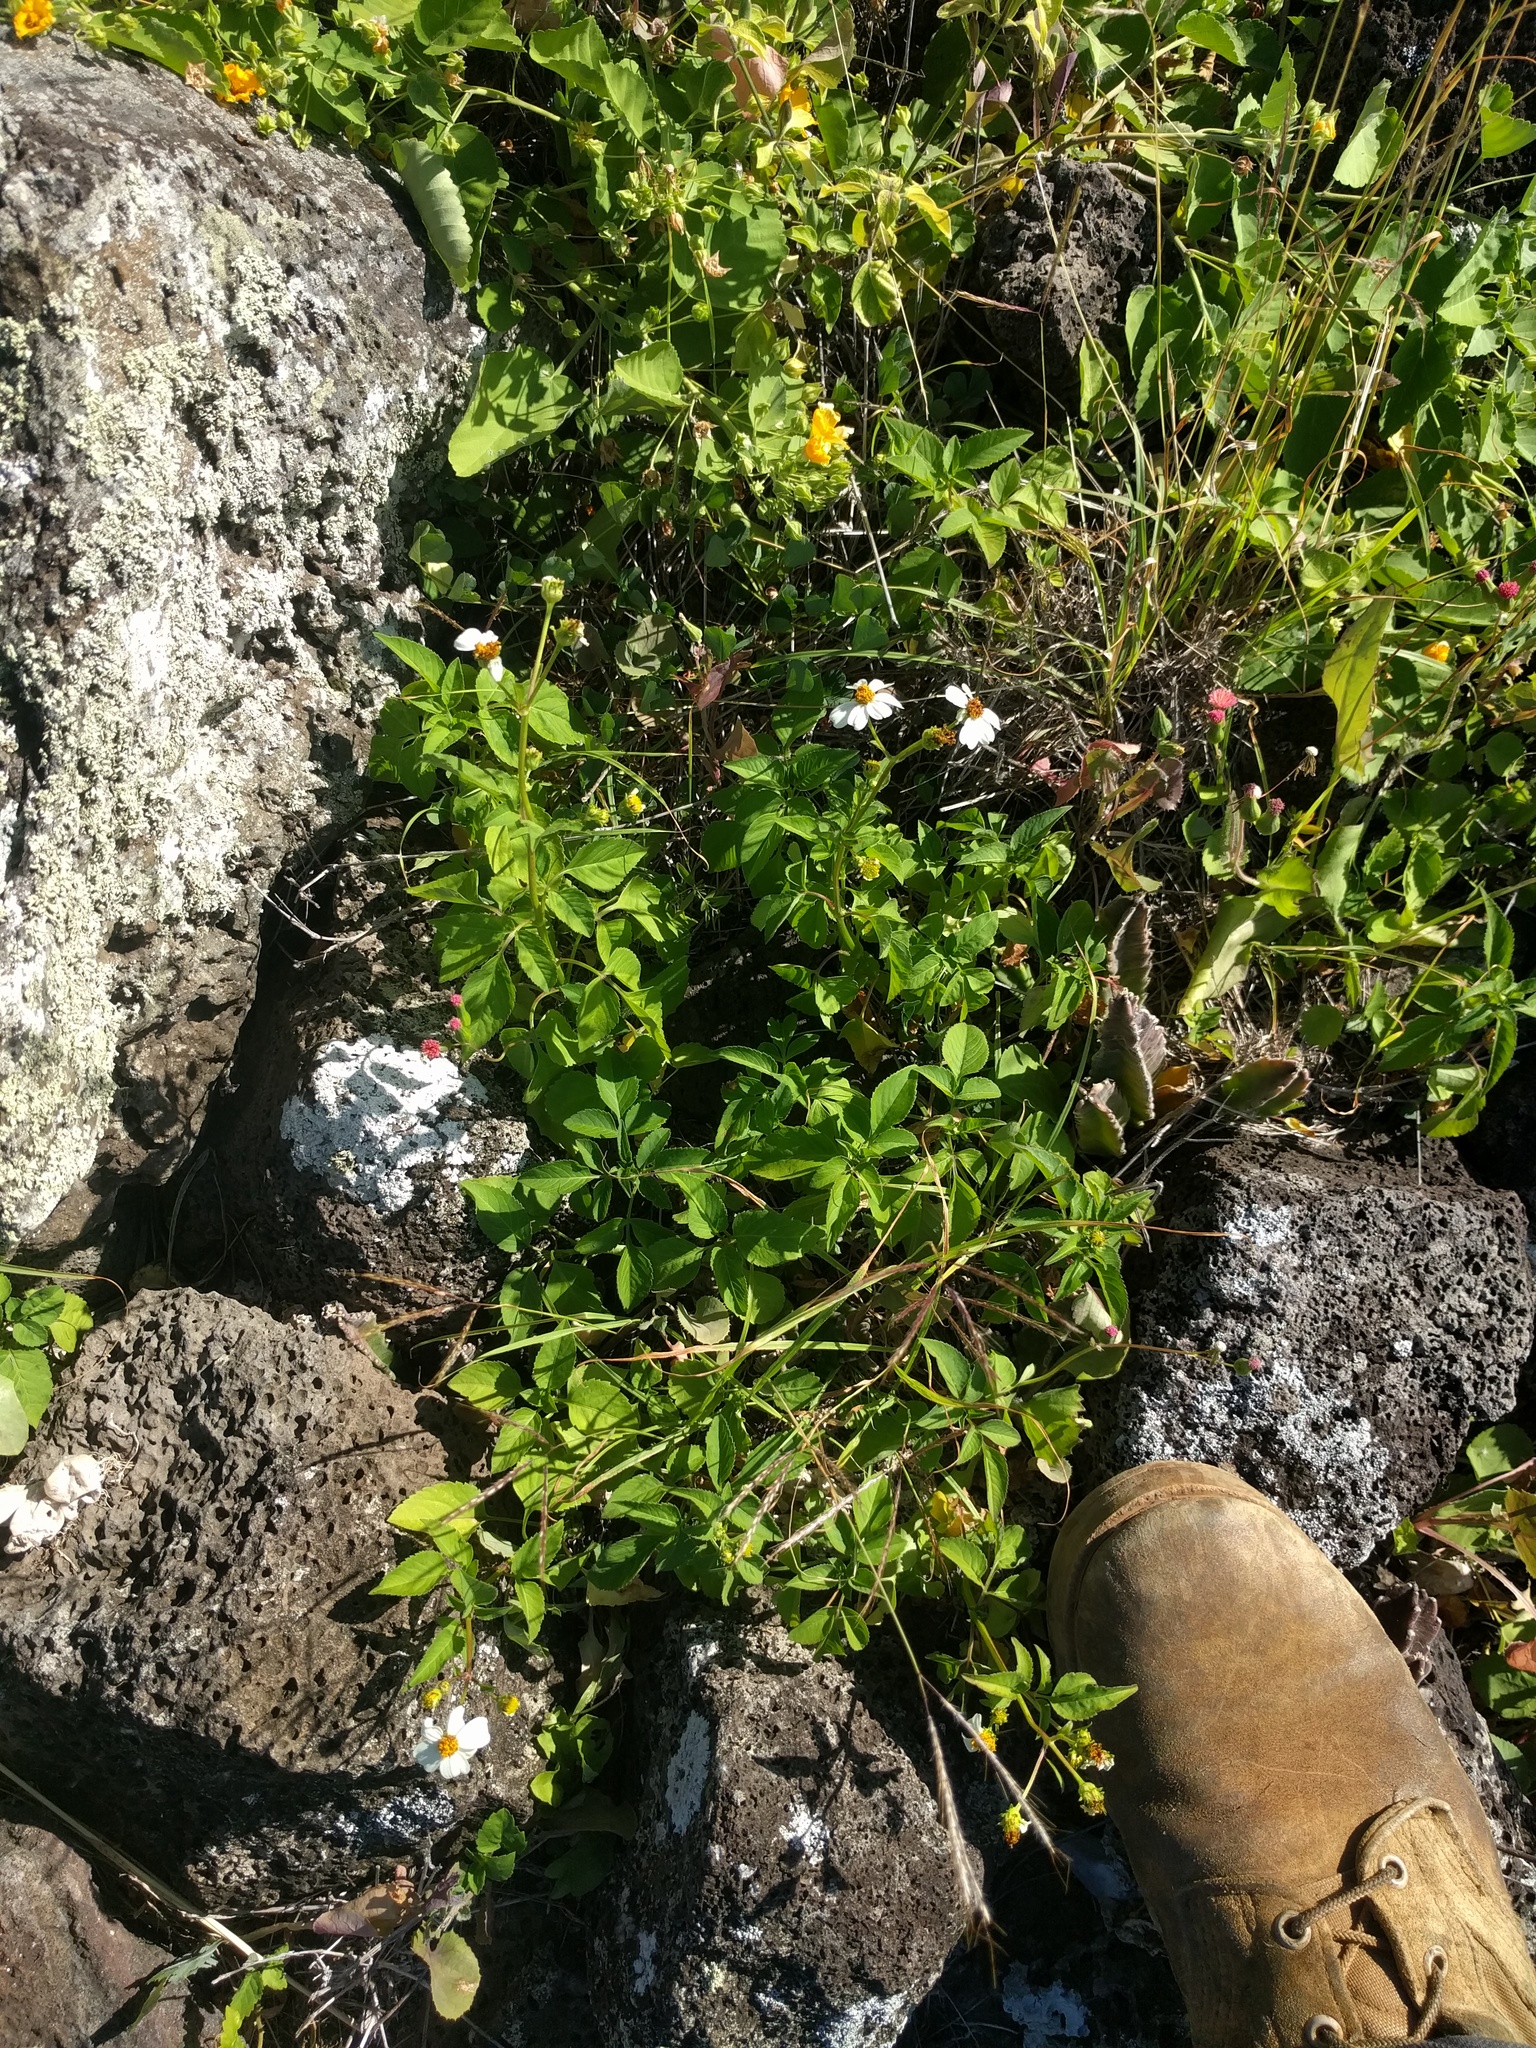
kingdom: Plantae
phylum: Tracheophyta
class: Magnoliopsida
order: Asterales
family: Asteraceae
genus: Bidens
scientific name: Bidens alba
